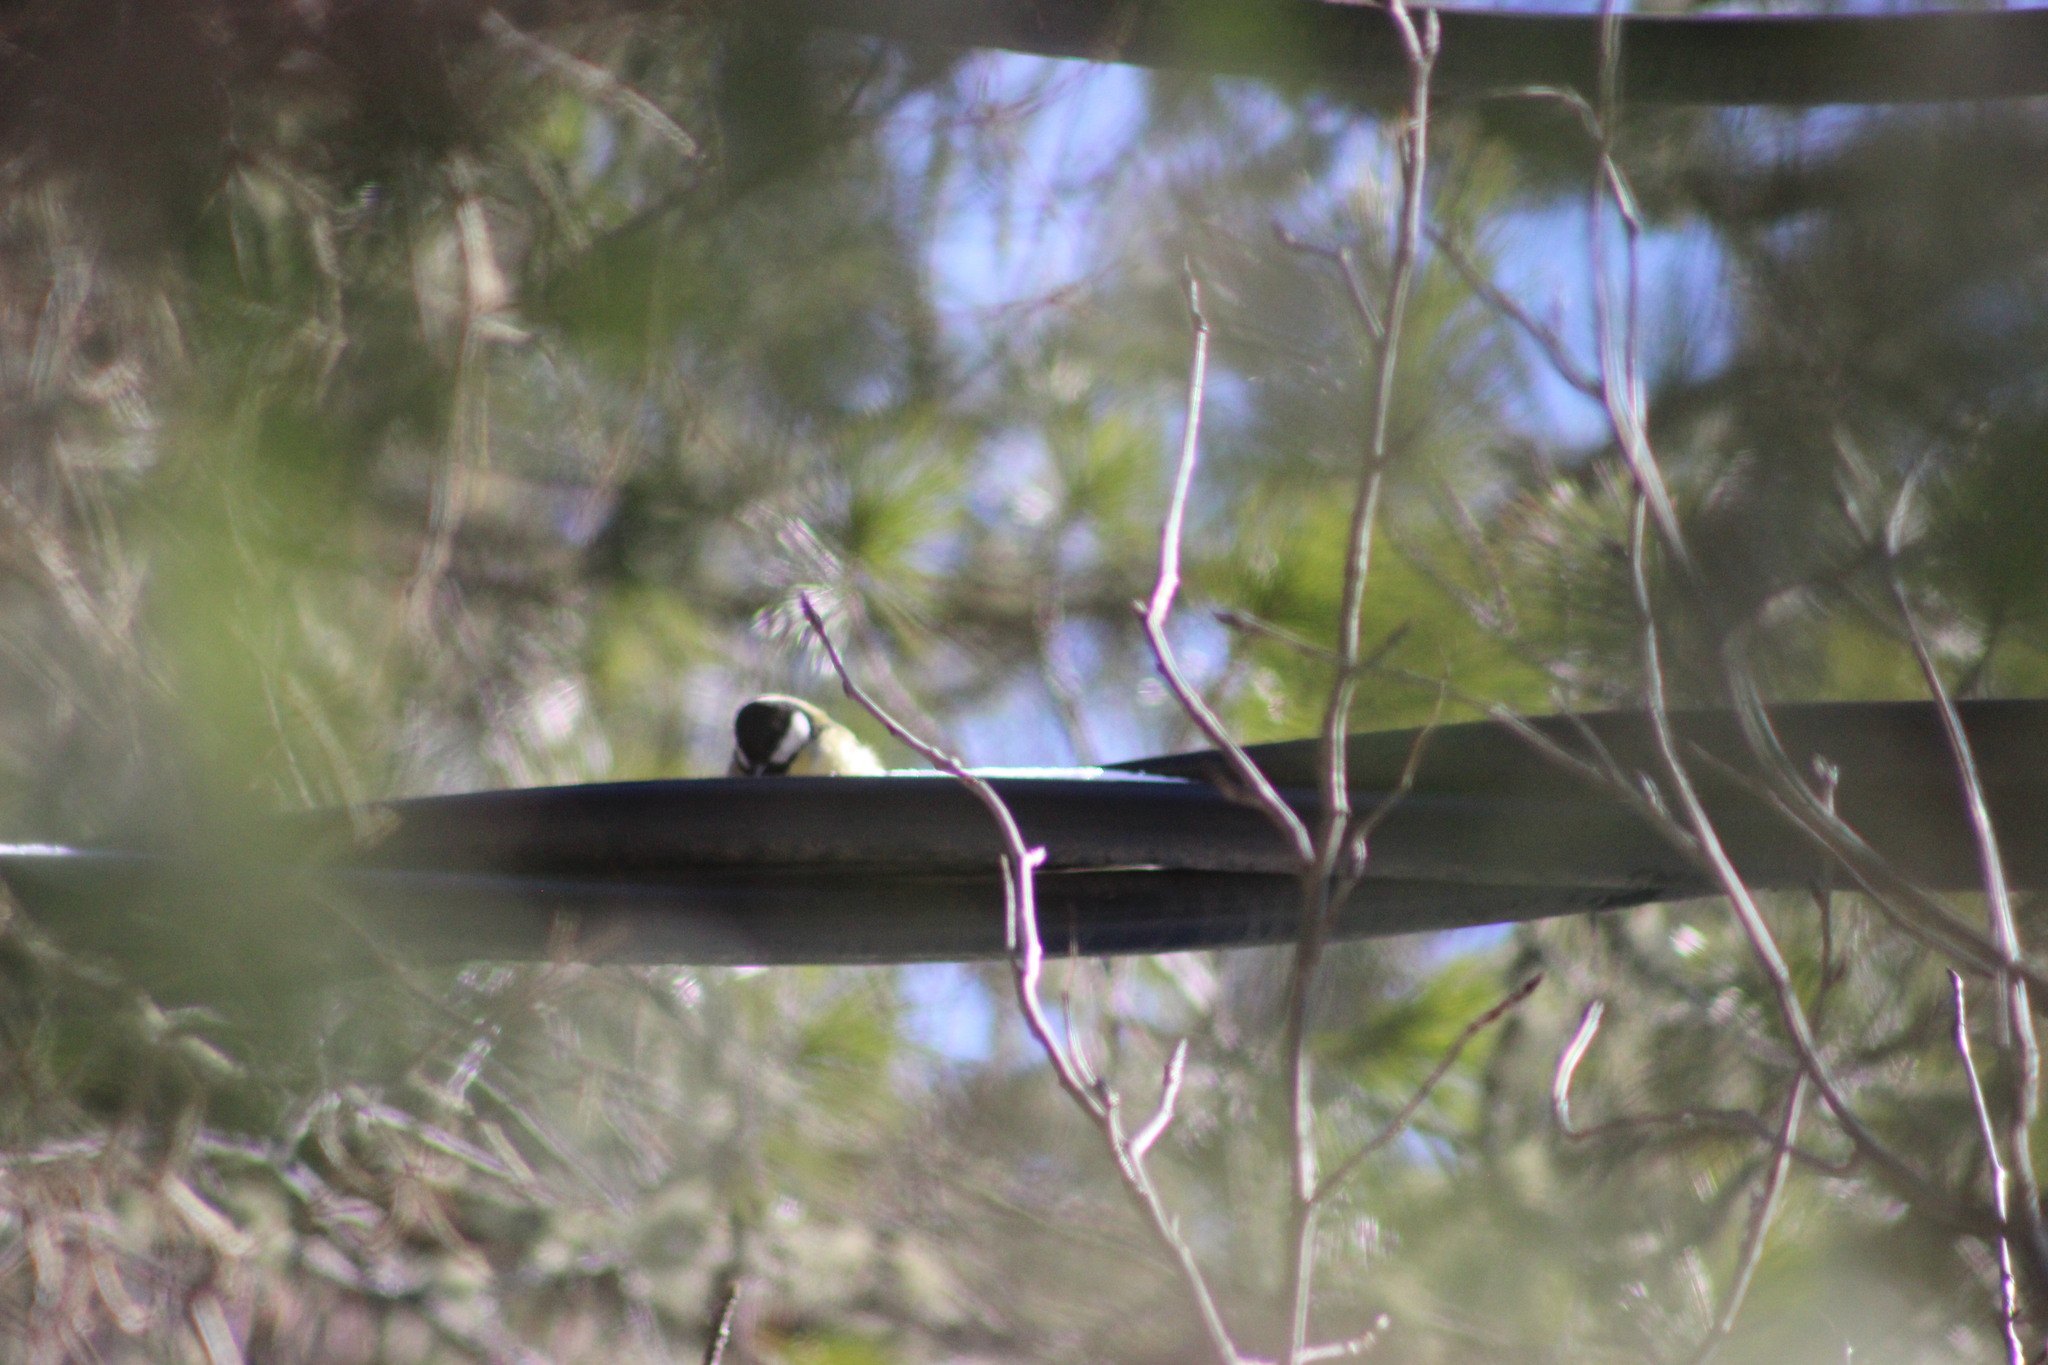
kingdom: Animalia
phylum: Chordata
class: Aves
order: Passeriformes
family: Paridae
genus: Parus
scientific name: Parus major
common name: Great tit
